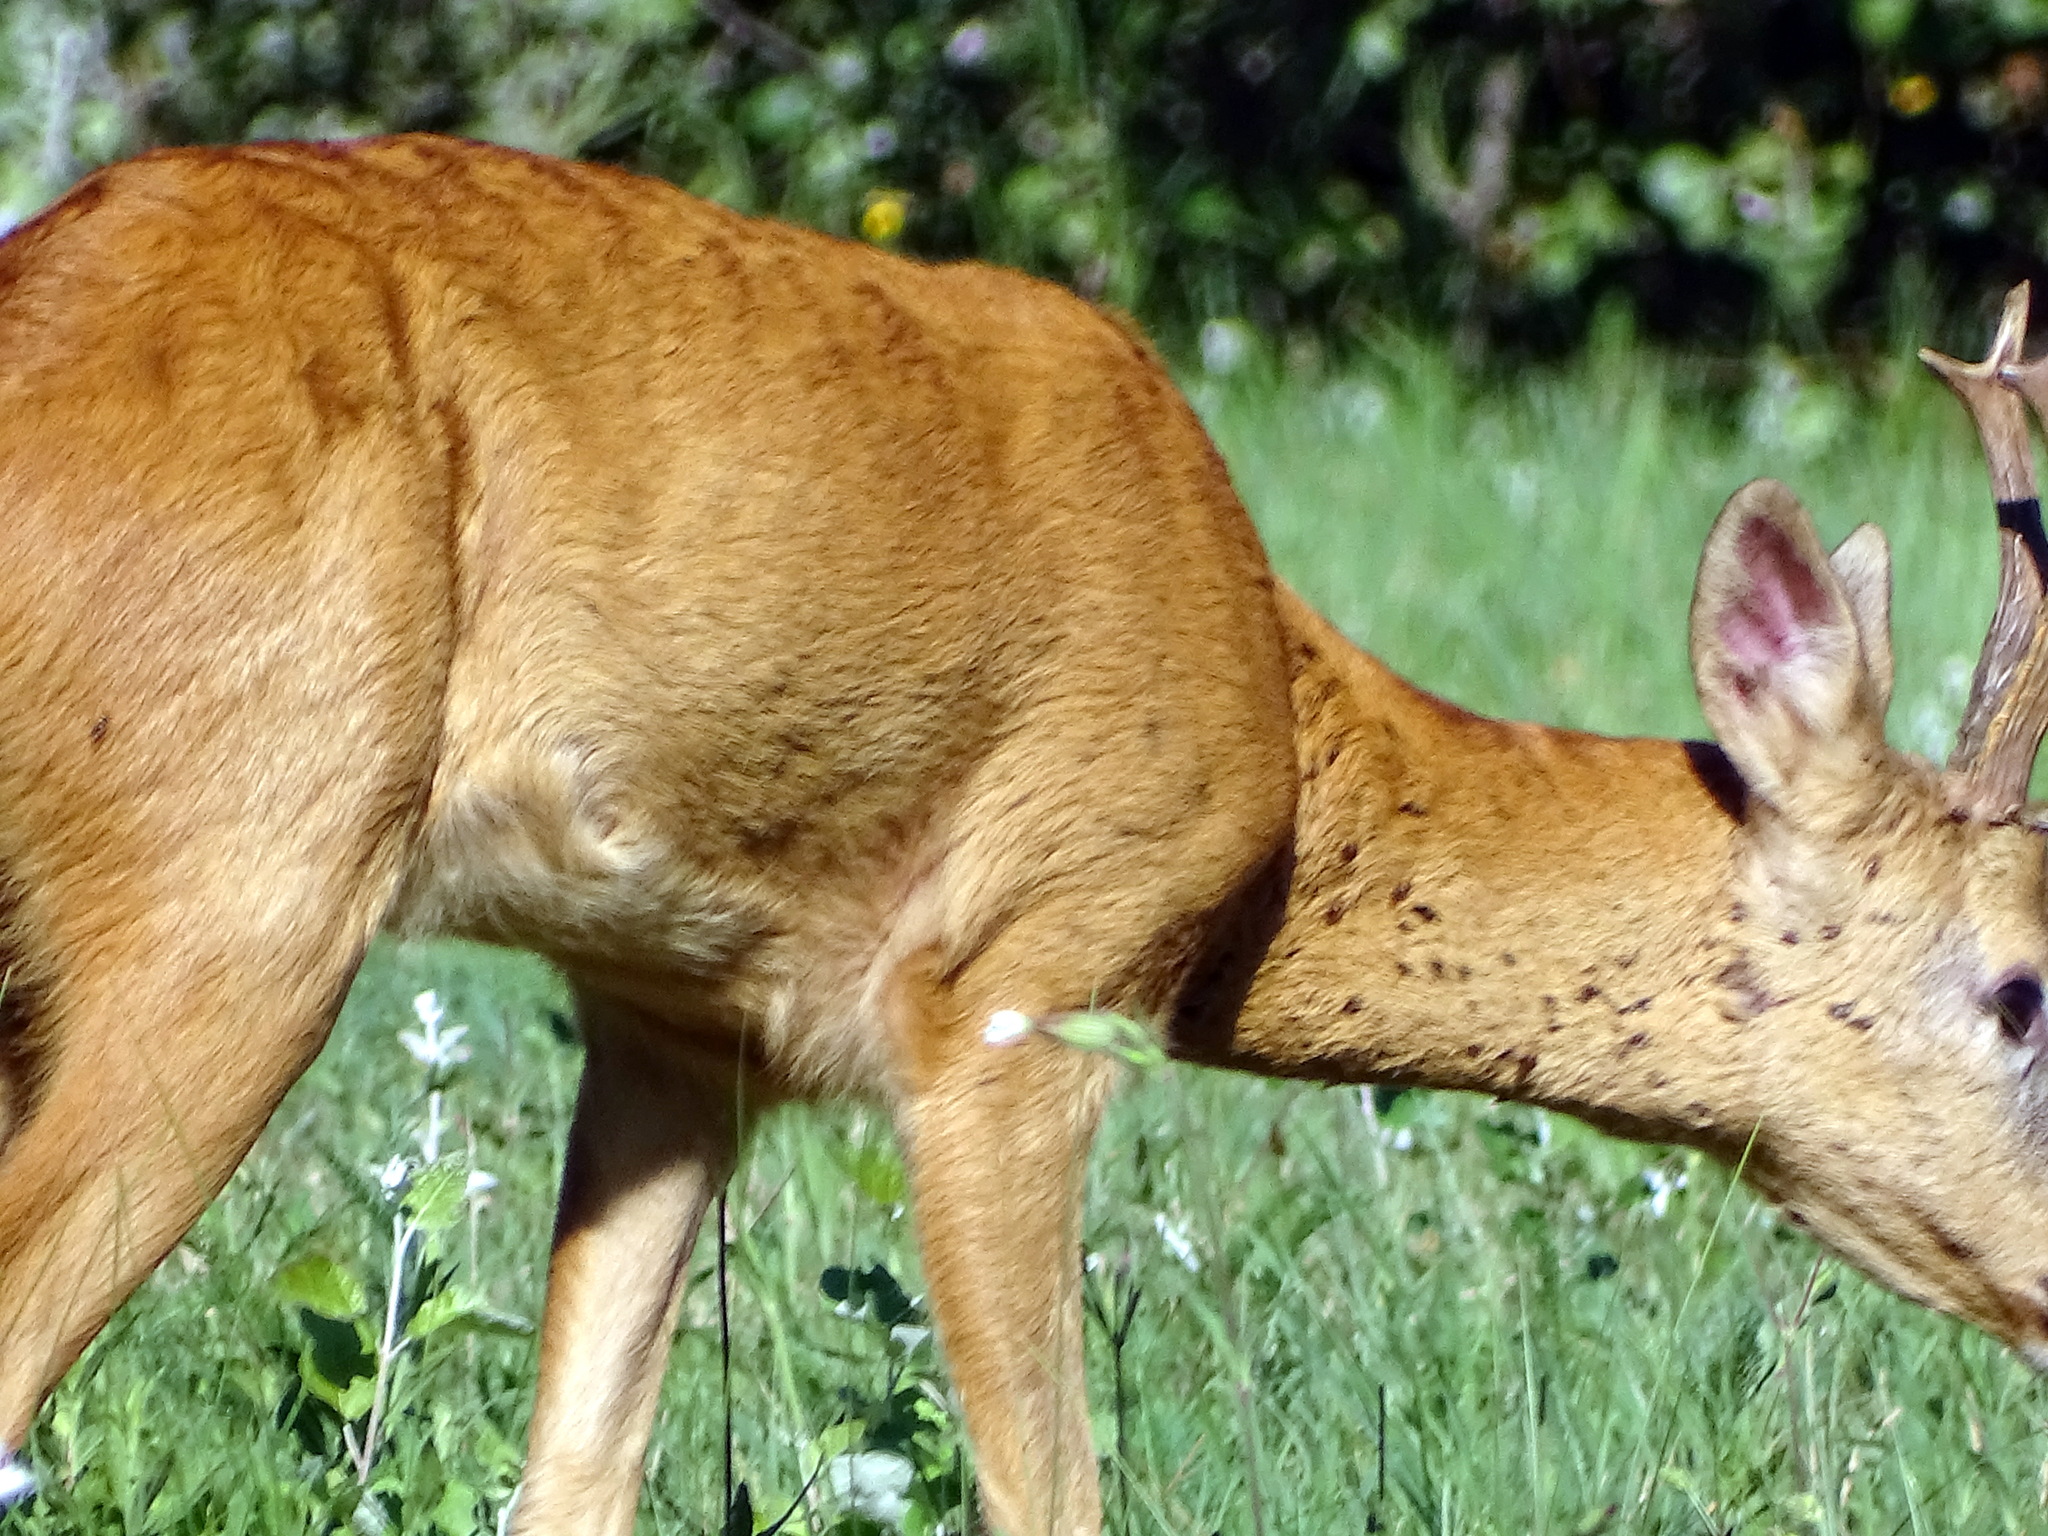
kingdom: Animalia
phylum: Chordata
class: Mammalia
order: Artiodactyla
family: Cervidae
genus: Capreolus
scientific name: Capreolus capreolus
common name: Western roe deer
